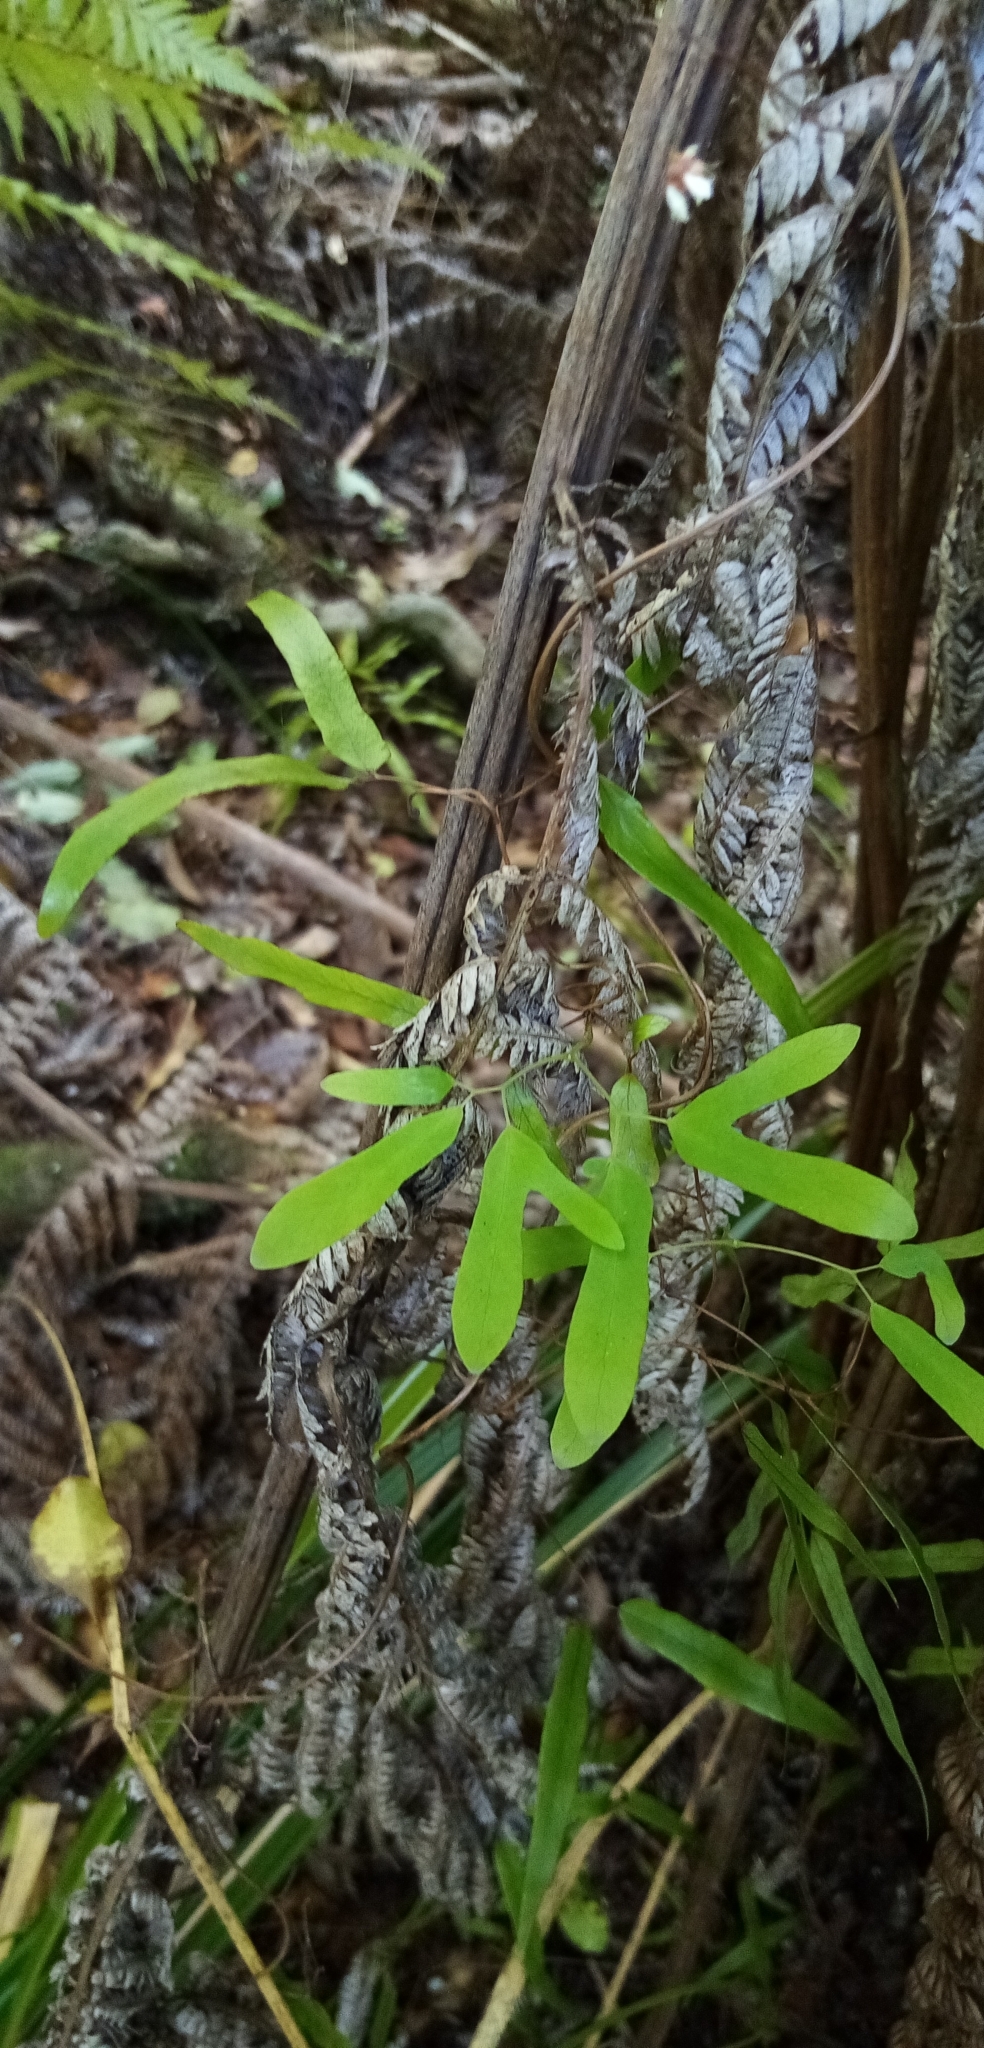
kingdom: Plantae
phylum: Tracheophyta
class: Polypodiopsida
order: Schizaeales
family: Lygodiaceae
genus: Lygodium
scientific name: Lygodium articulatum
